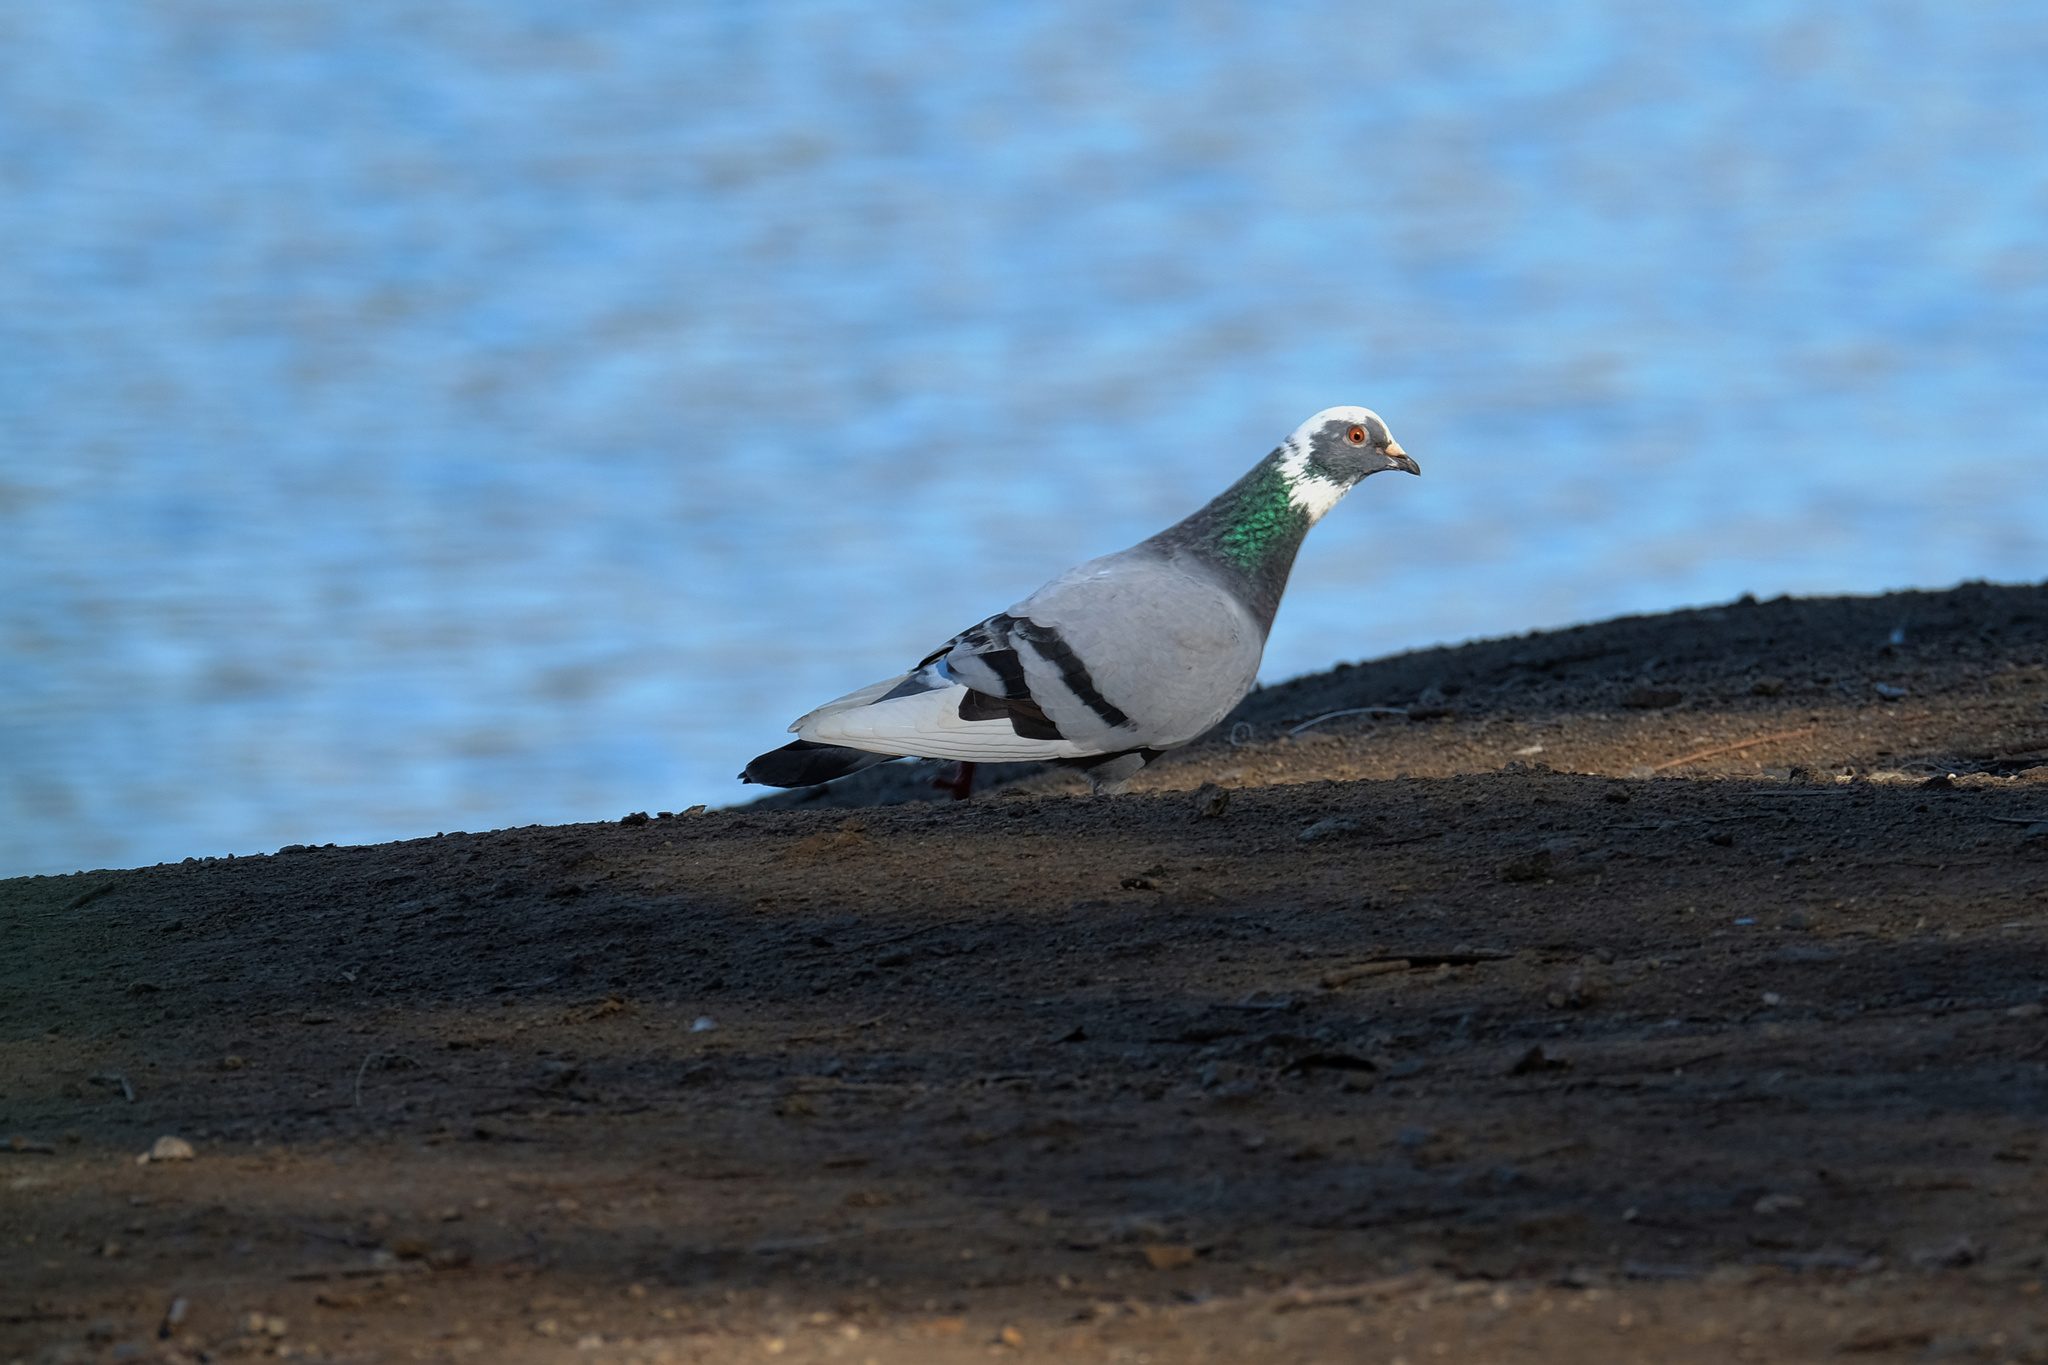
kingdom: Animalia
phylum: Chordata
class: Aves
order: Columbiformes
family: Columbidae
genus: Columba
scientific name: Columba livia
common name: Rock pigeon
